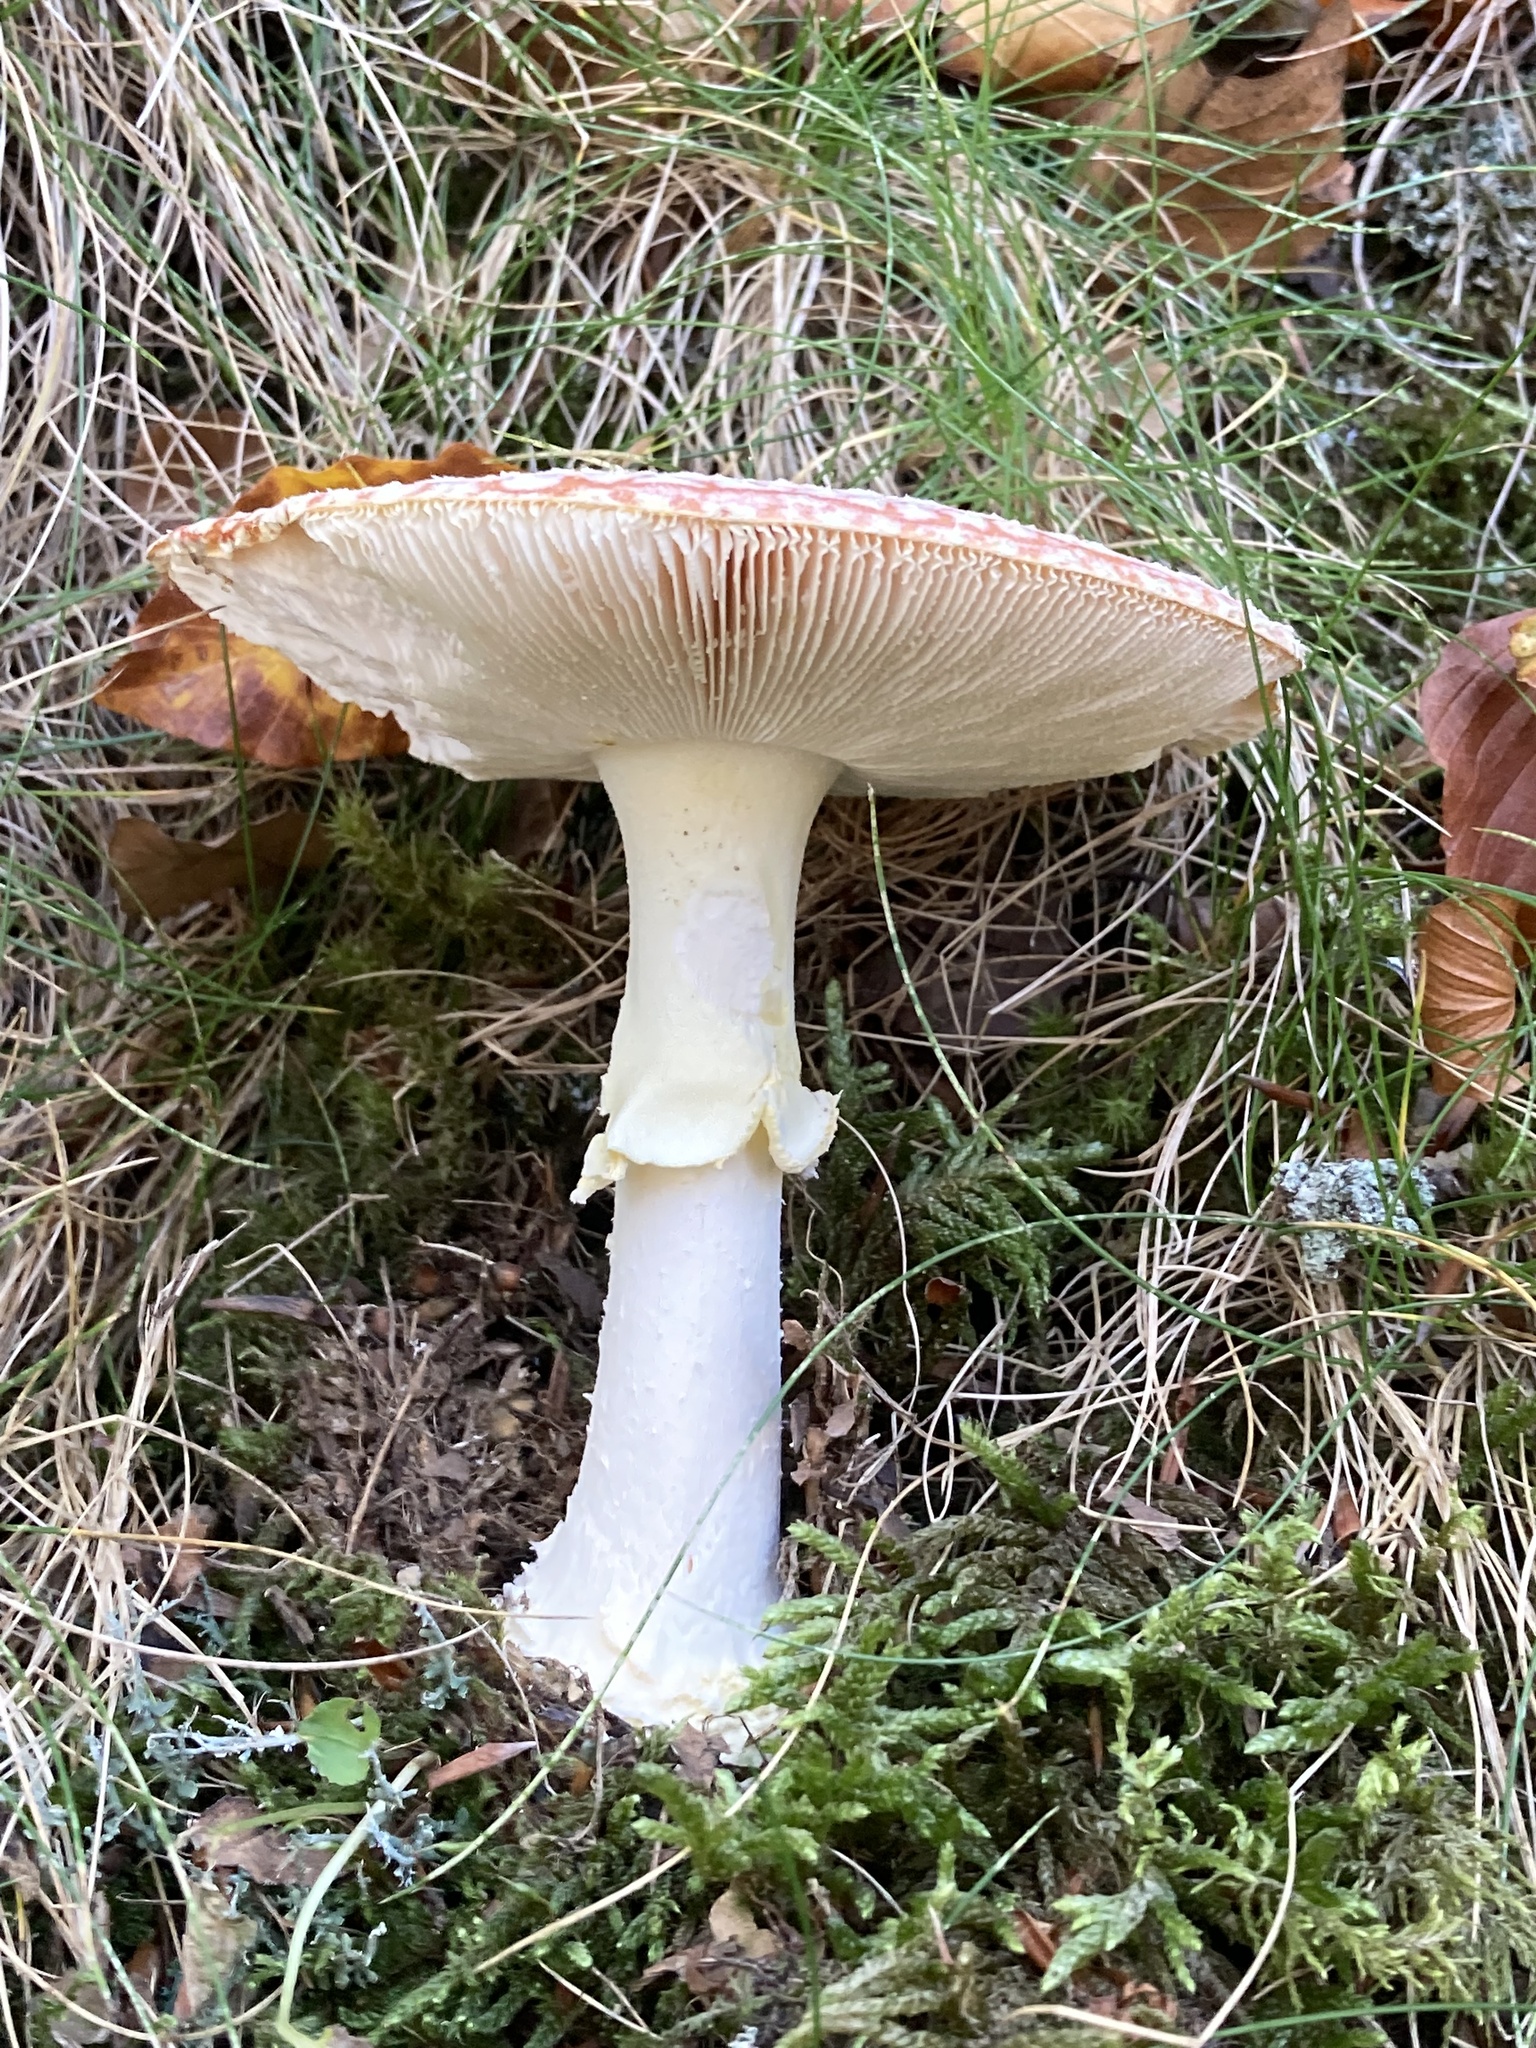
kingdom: Fungi
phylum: Basidiomycota
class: Agaricomycetes
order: Agaricales
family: Amanitaceae
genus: Amanita
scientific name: Amanita muscaria
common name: Fly agaric
